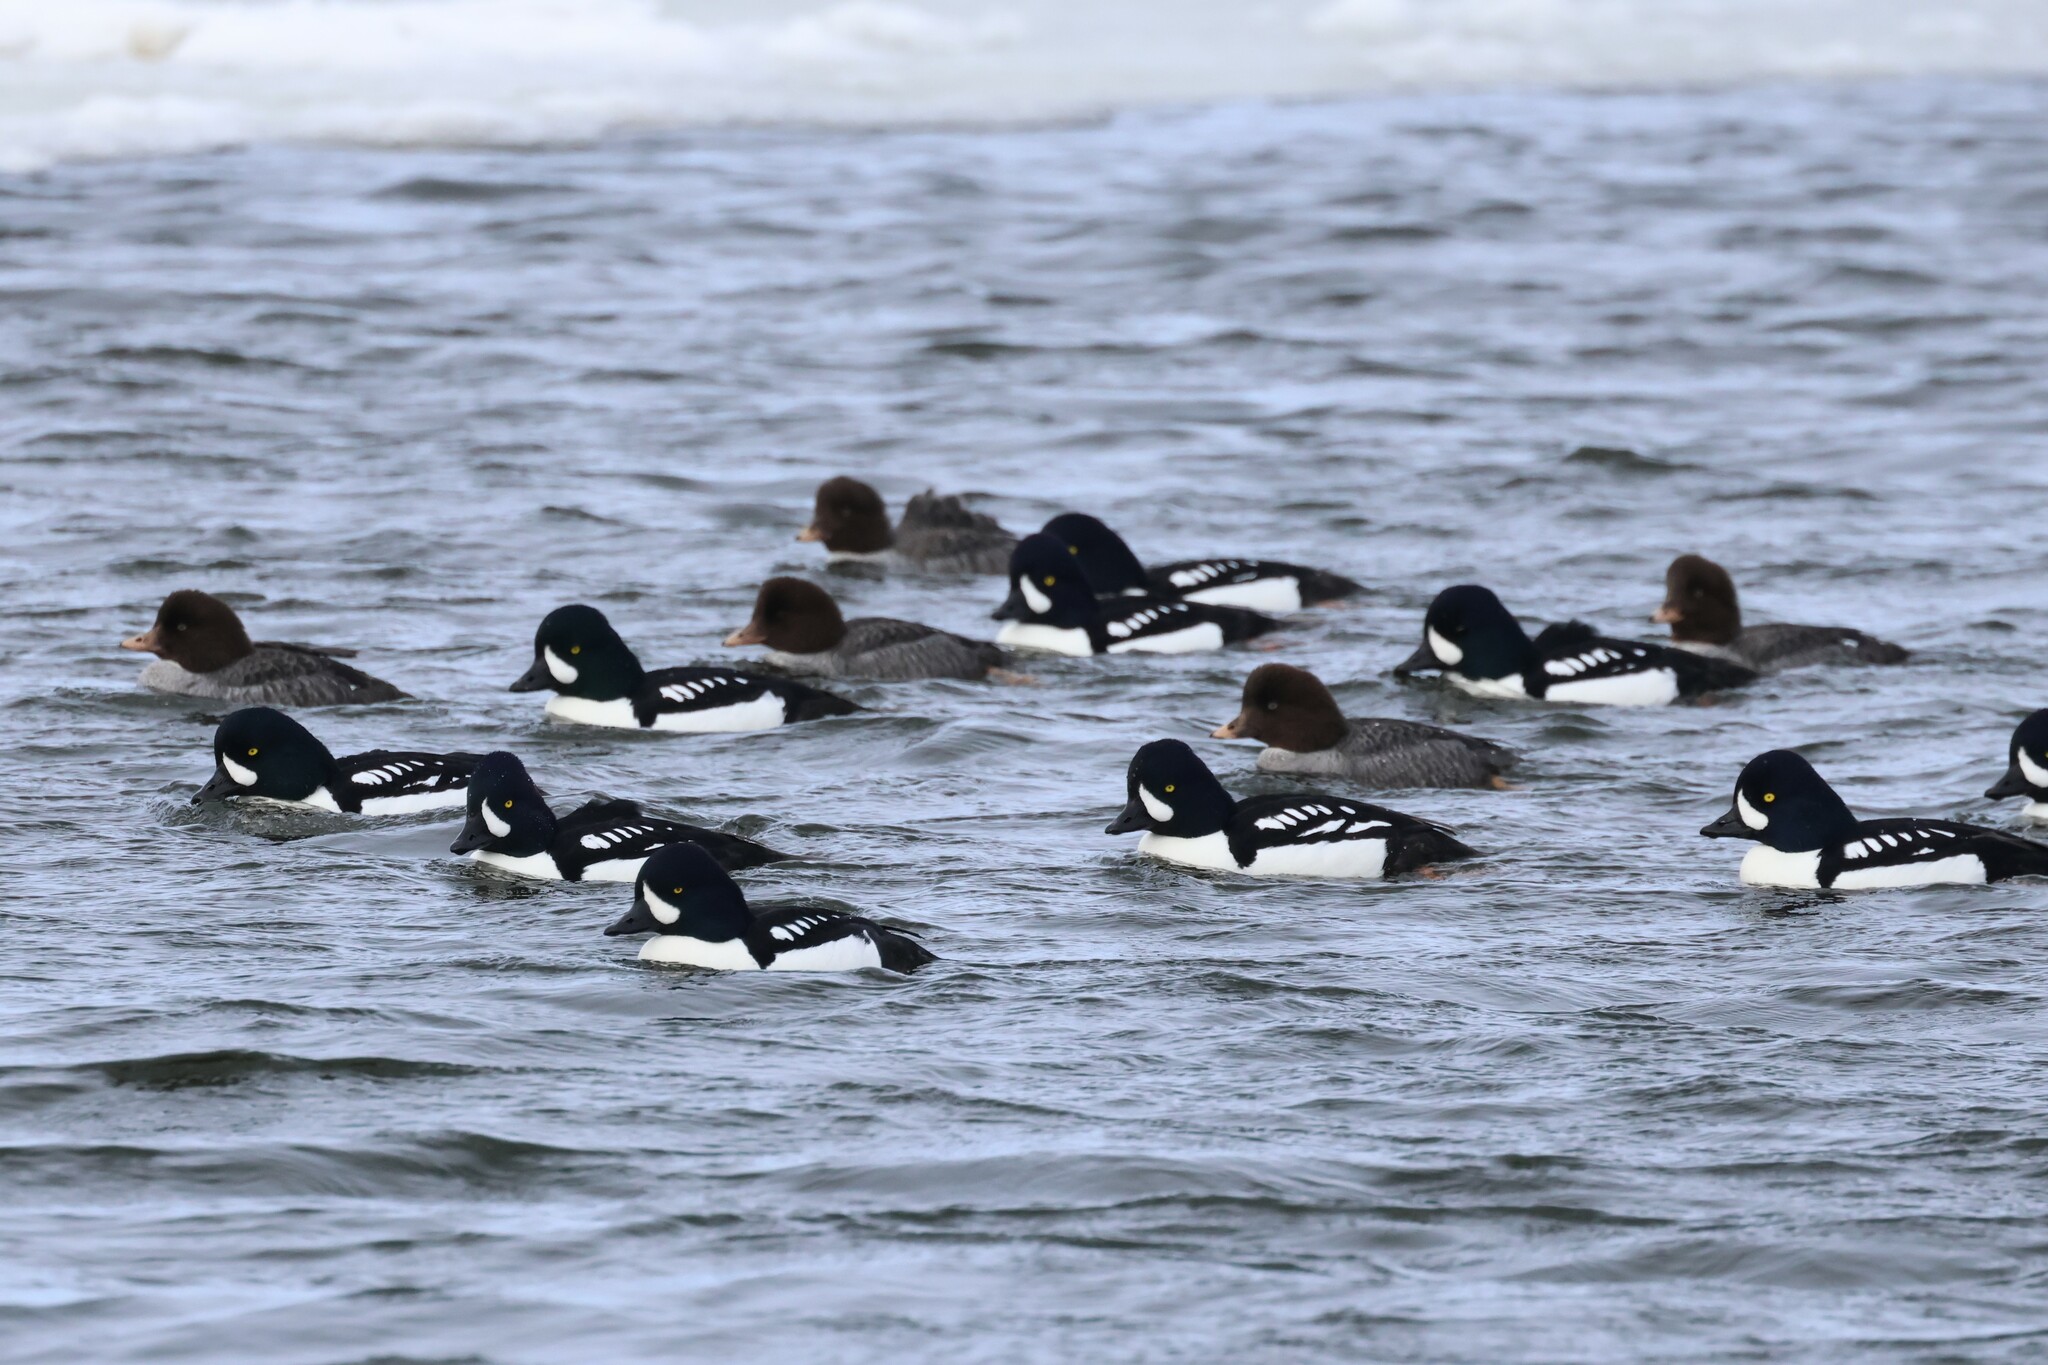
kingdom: Animalia
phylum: Chordata
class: Aves
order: Anseriformes
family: Anatidae
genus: Bucephala
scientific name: Bucephala islandica
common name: Barrow's goldeneye
